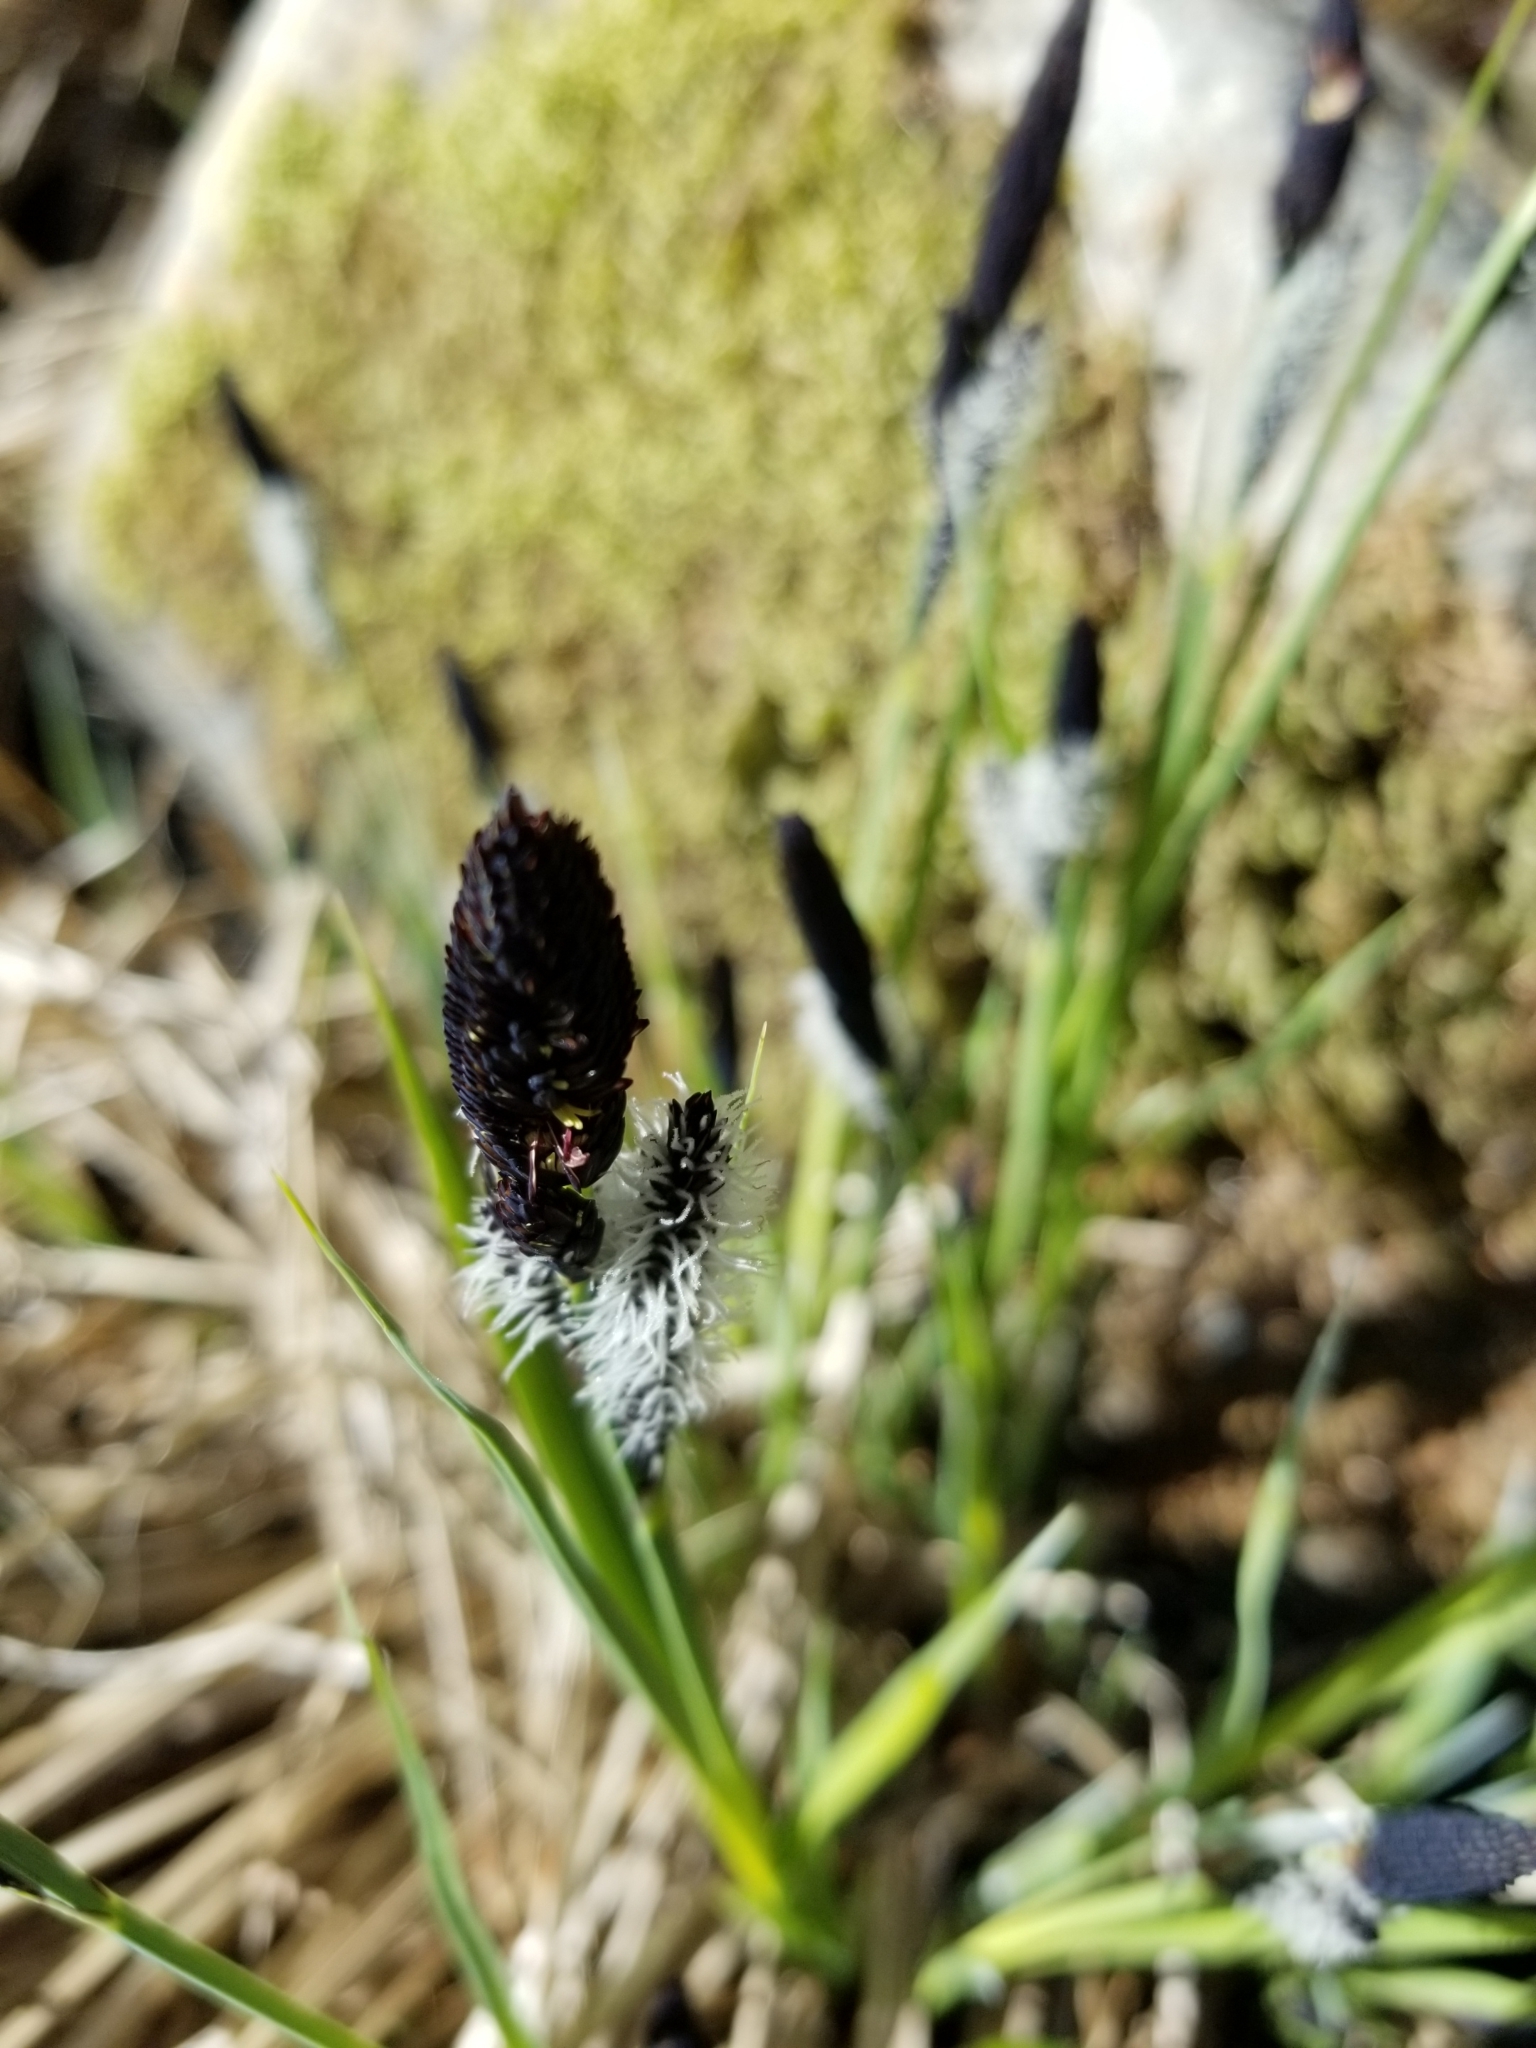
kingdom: Plantae
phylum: Tracheophyta
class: Magnoliopsida
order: Lamiales
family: Plantaginaceae
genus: Plantago
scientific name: Plantago lanceolata
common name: Ribwort plantain
